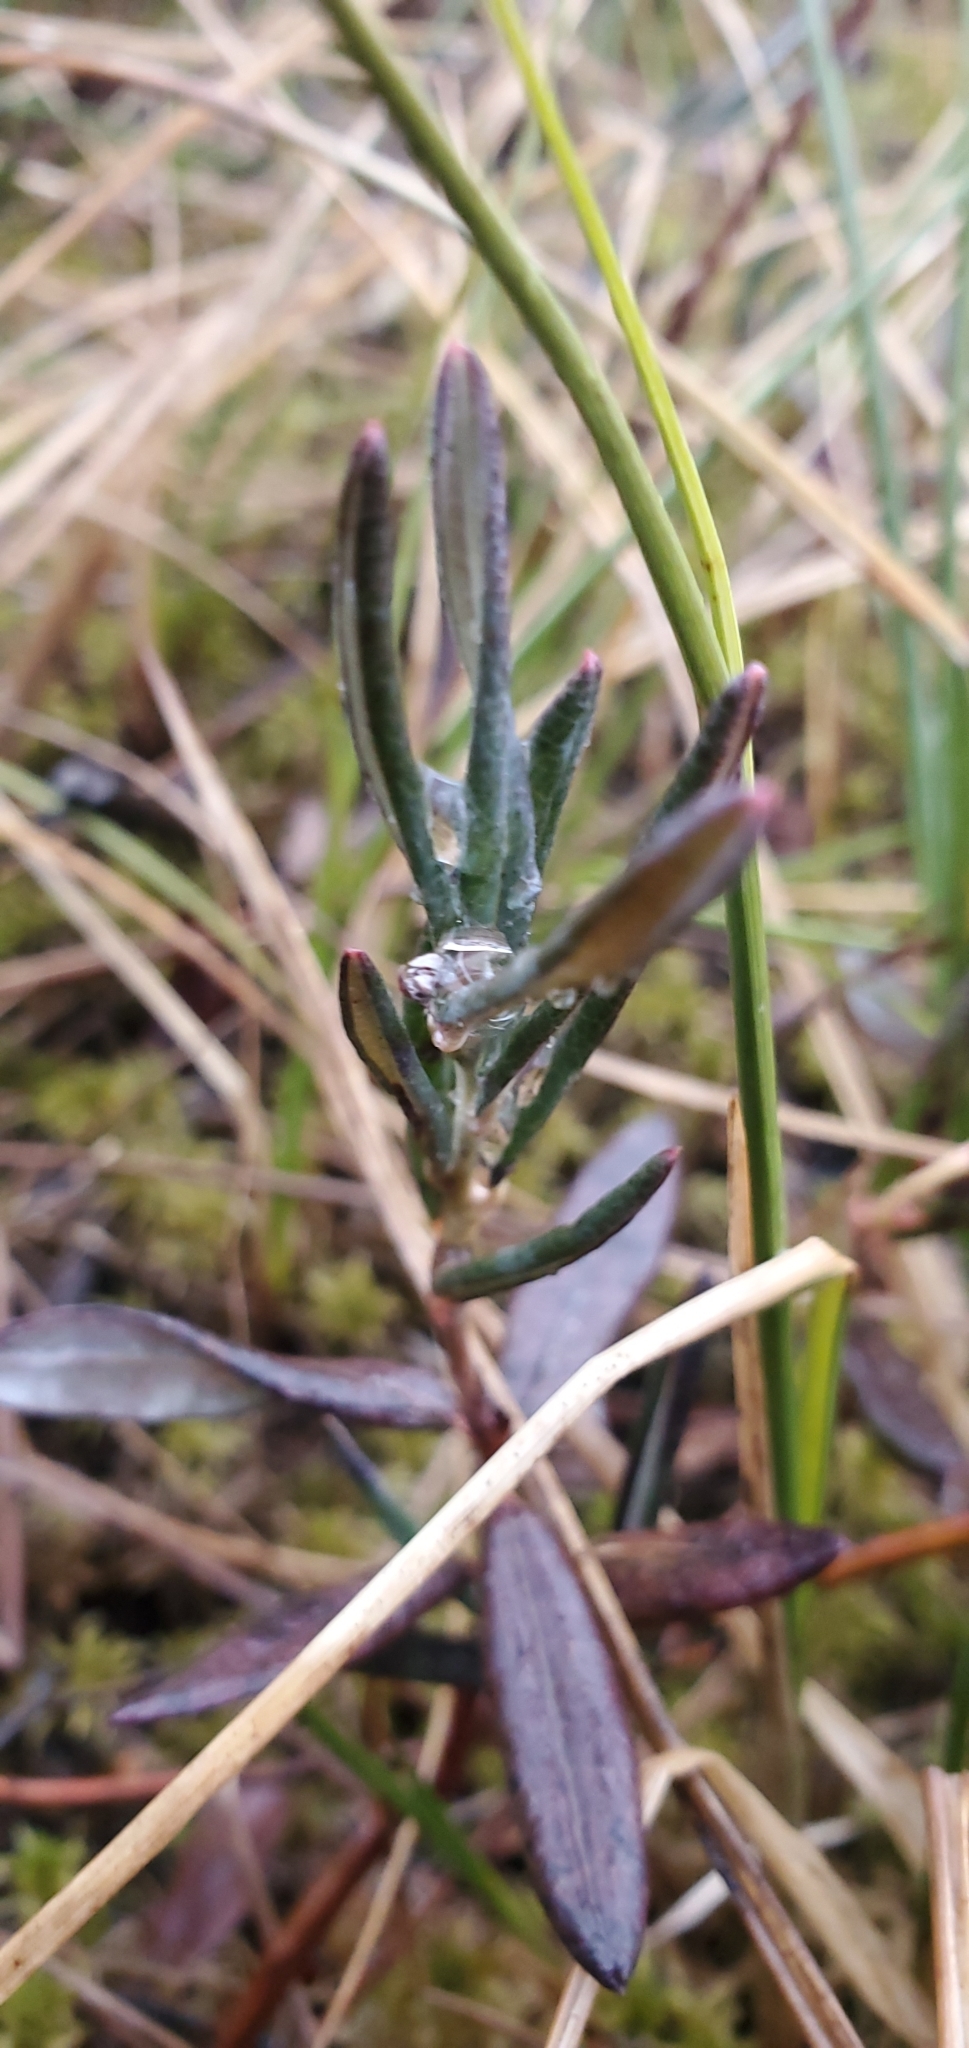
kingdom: Plantae
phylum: Tracheophyta
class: Magnoliopsida
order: Ericales
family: Ericaceae
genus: Andromeda
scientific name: Andromeda polifolia
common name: Bog-rosemary
